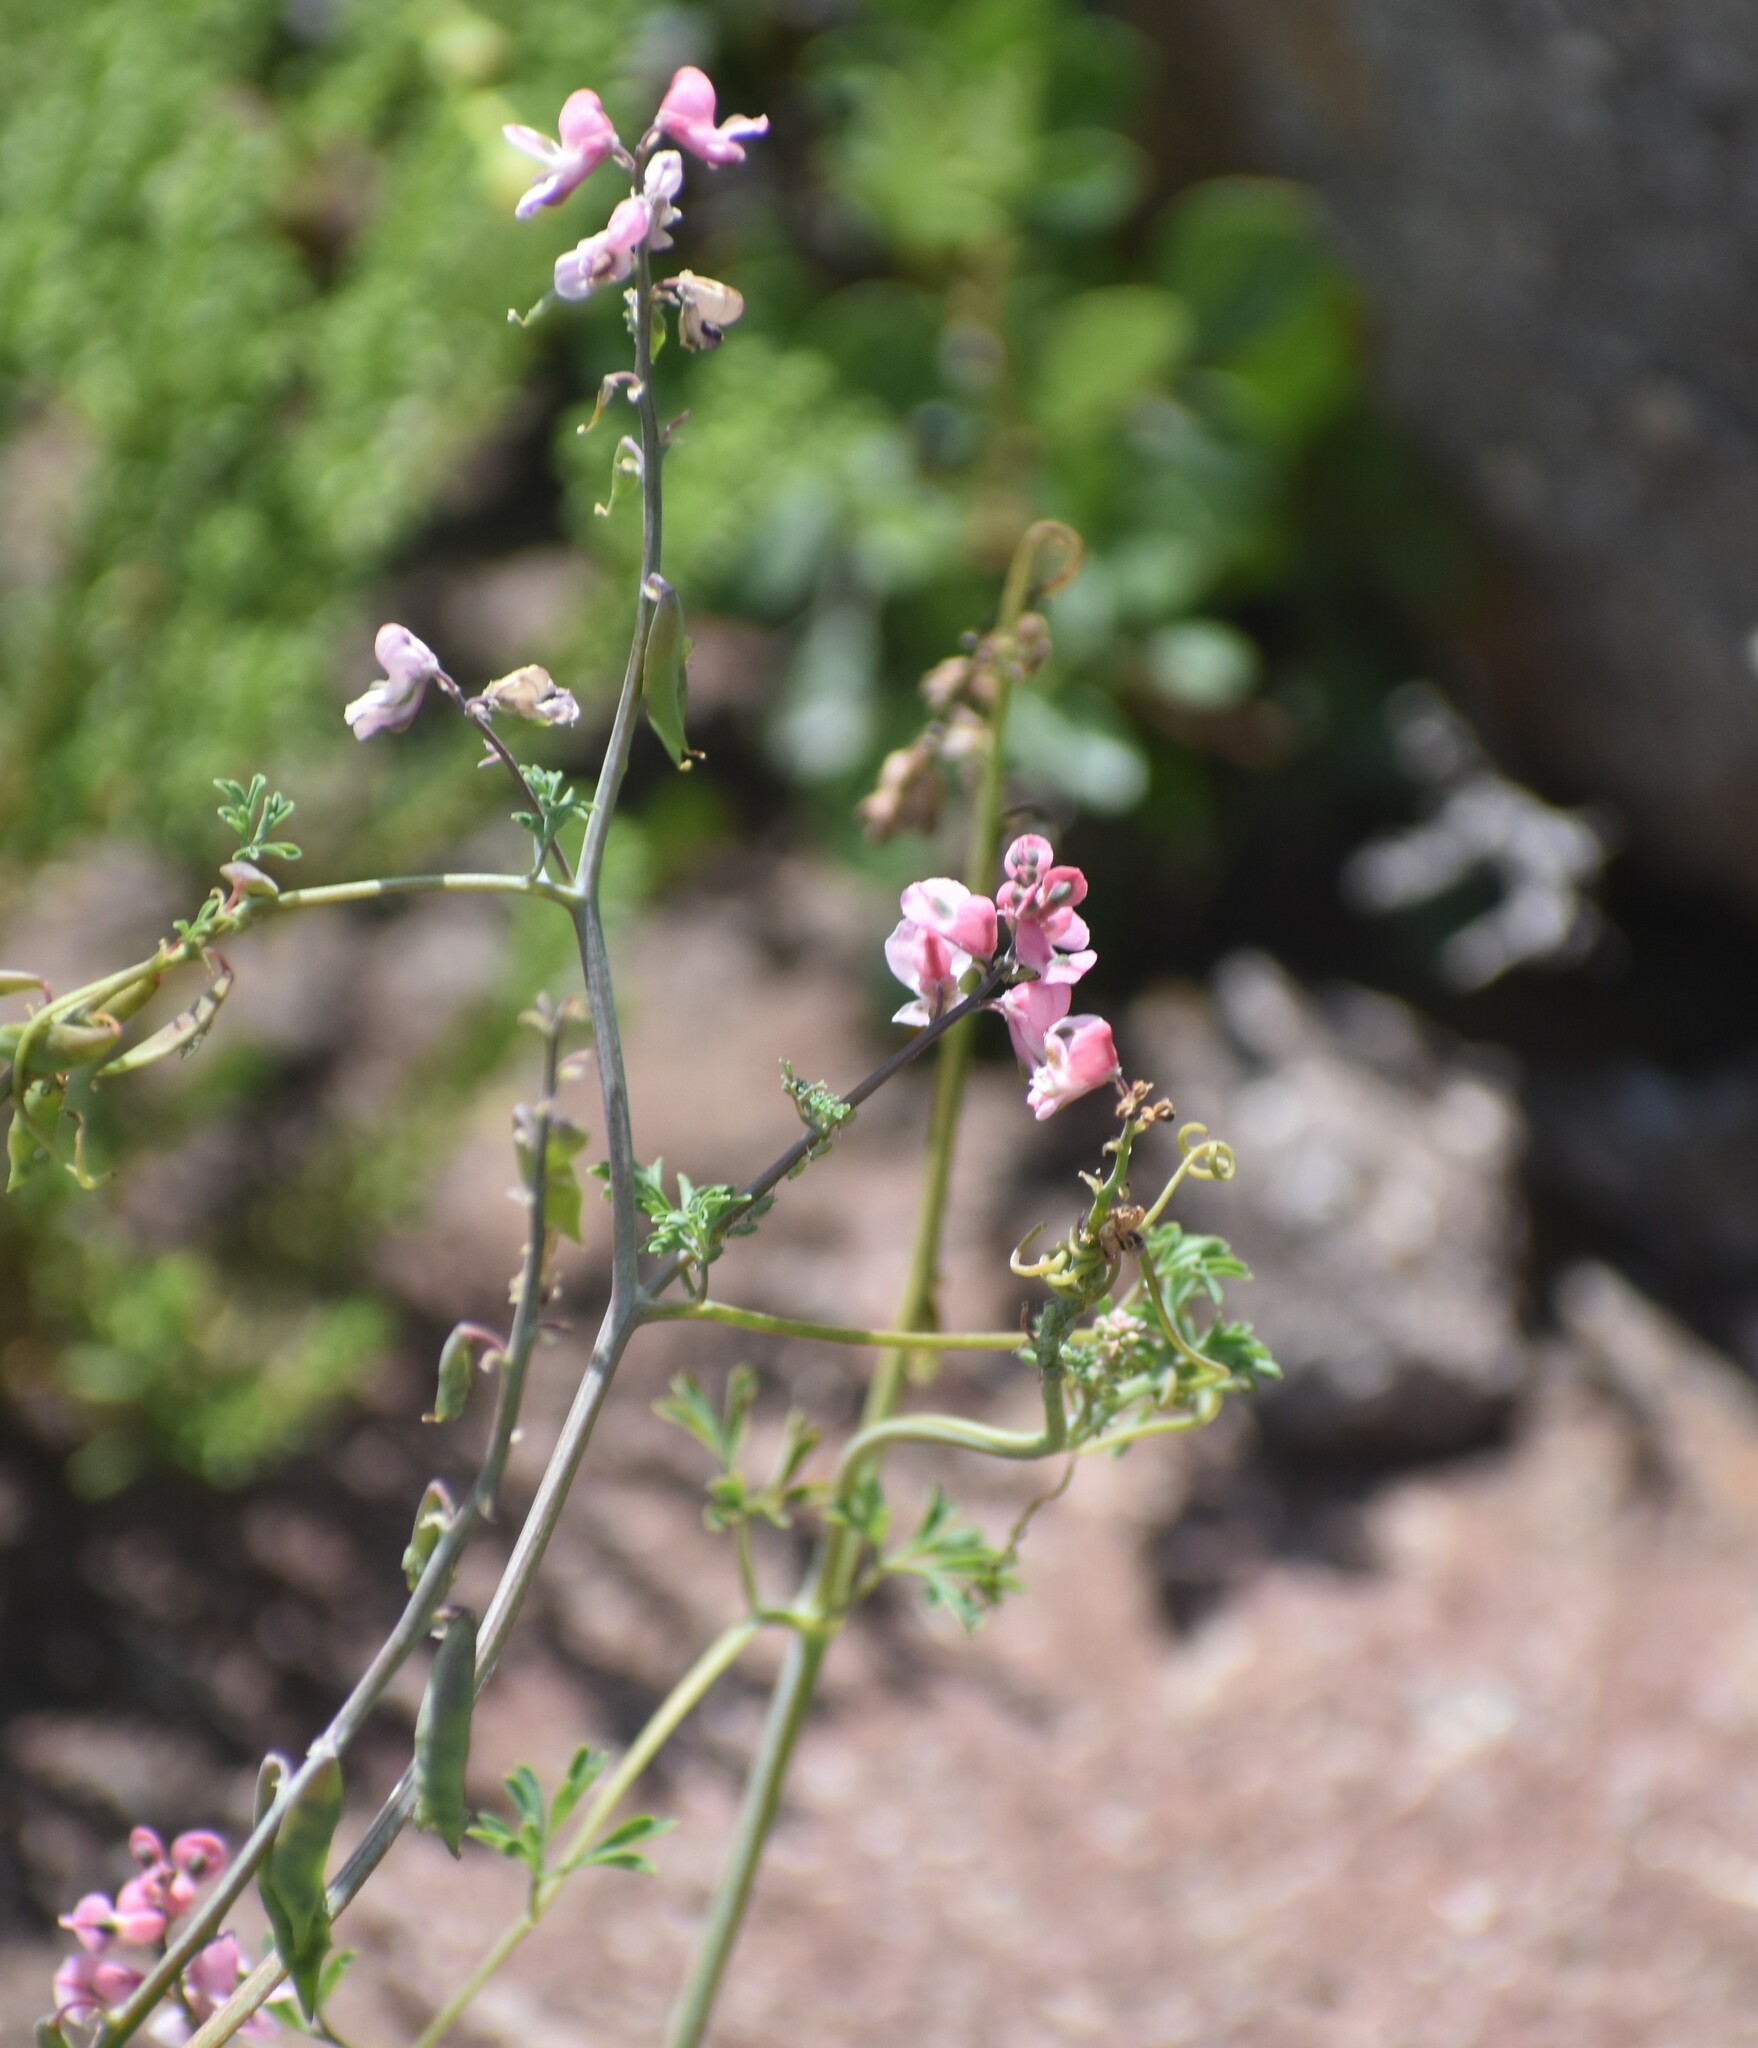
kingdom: Plantae
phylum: Tracheophyta
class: Magnoliopsida
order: Ranunculales
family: Papaveraceae
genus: Cysticapnos
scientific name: Cysticapnos pruinosa
